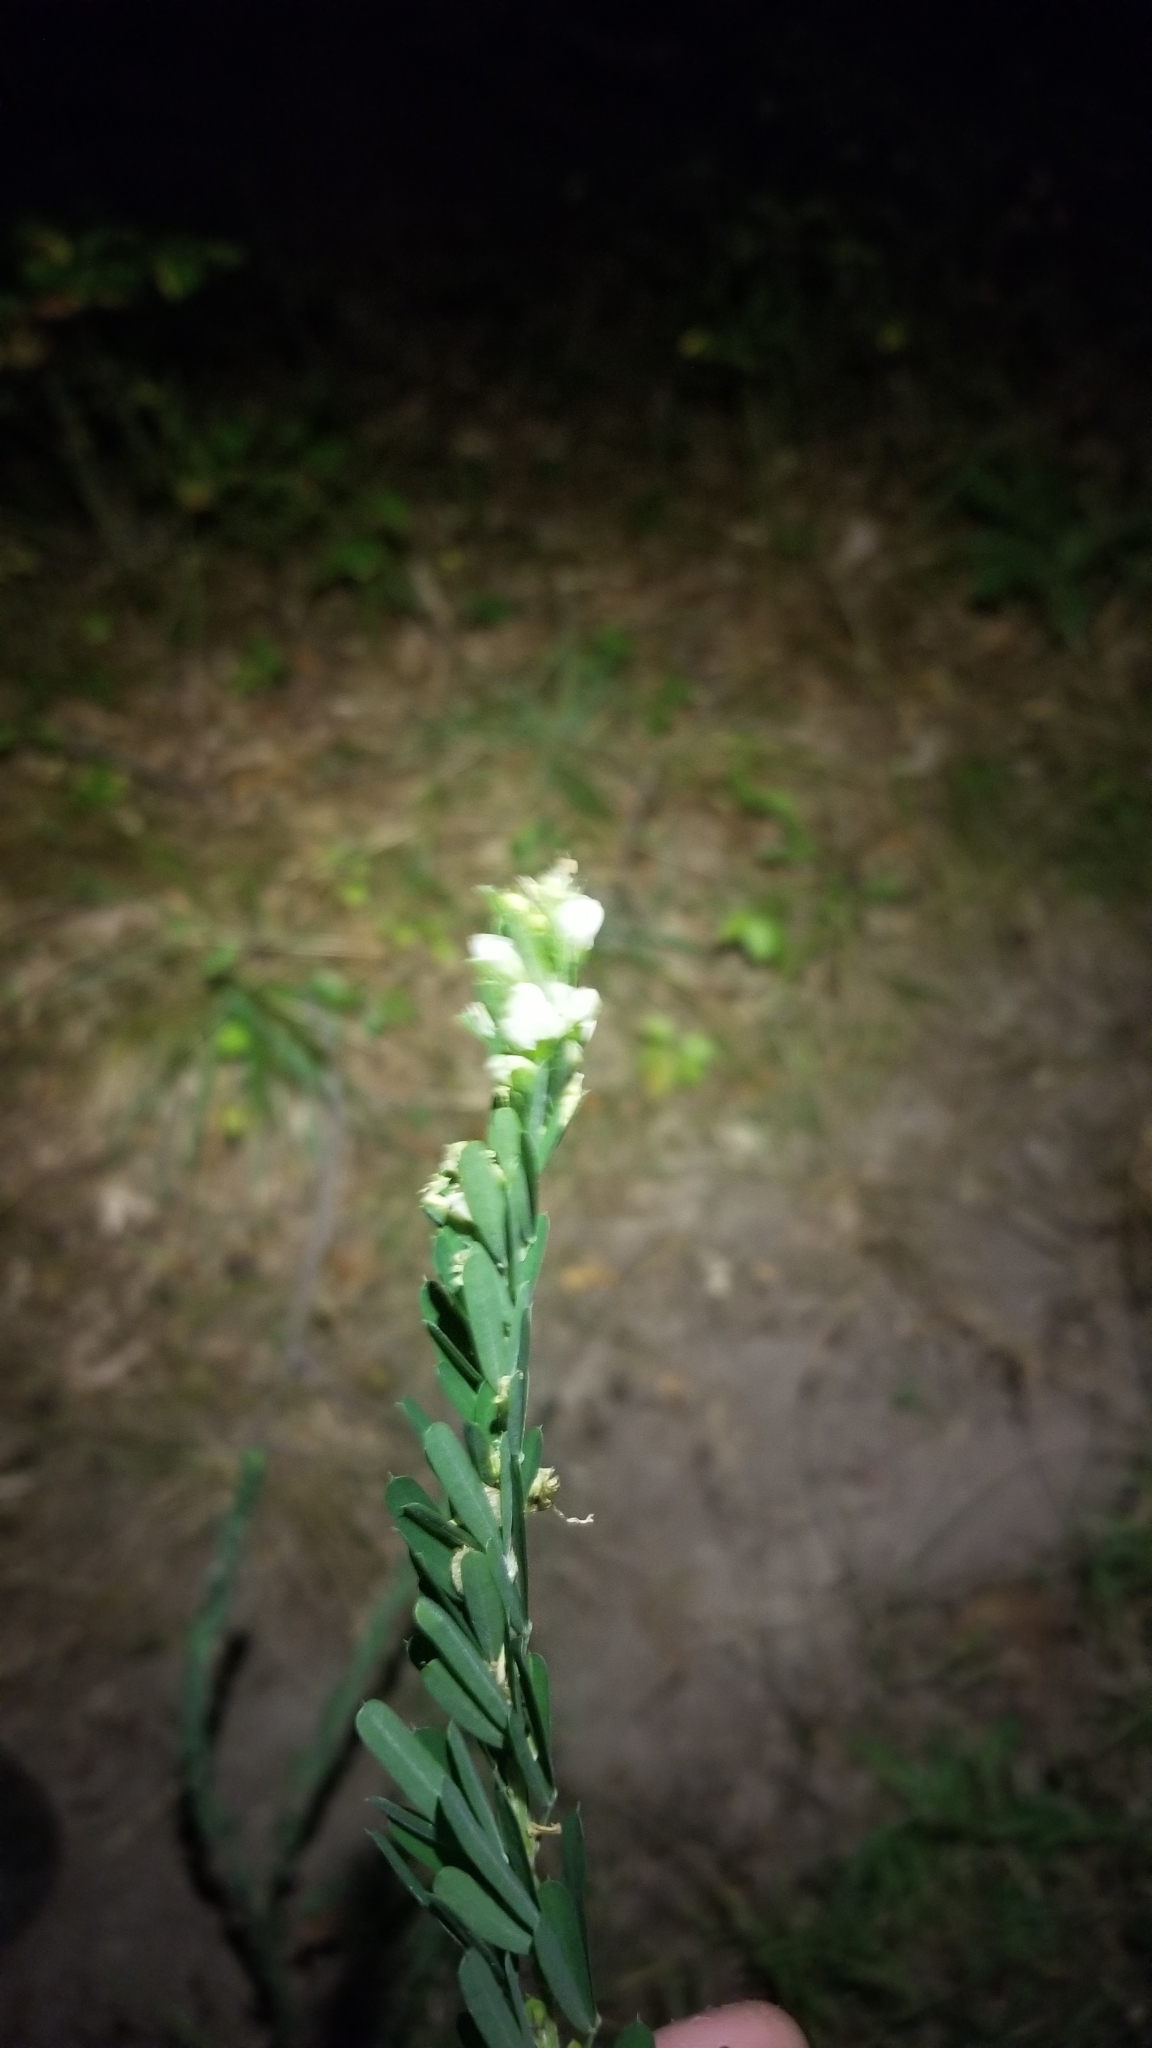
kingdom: Plantae
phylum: Tracheophyta
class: Magnoliopsida
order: Fabales
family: Fabaceae
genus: Lespedeza
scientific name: Lespedeza cuneata
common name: Chinese bush-clover
